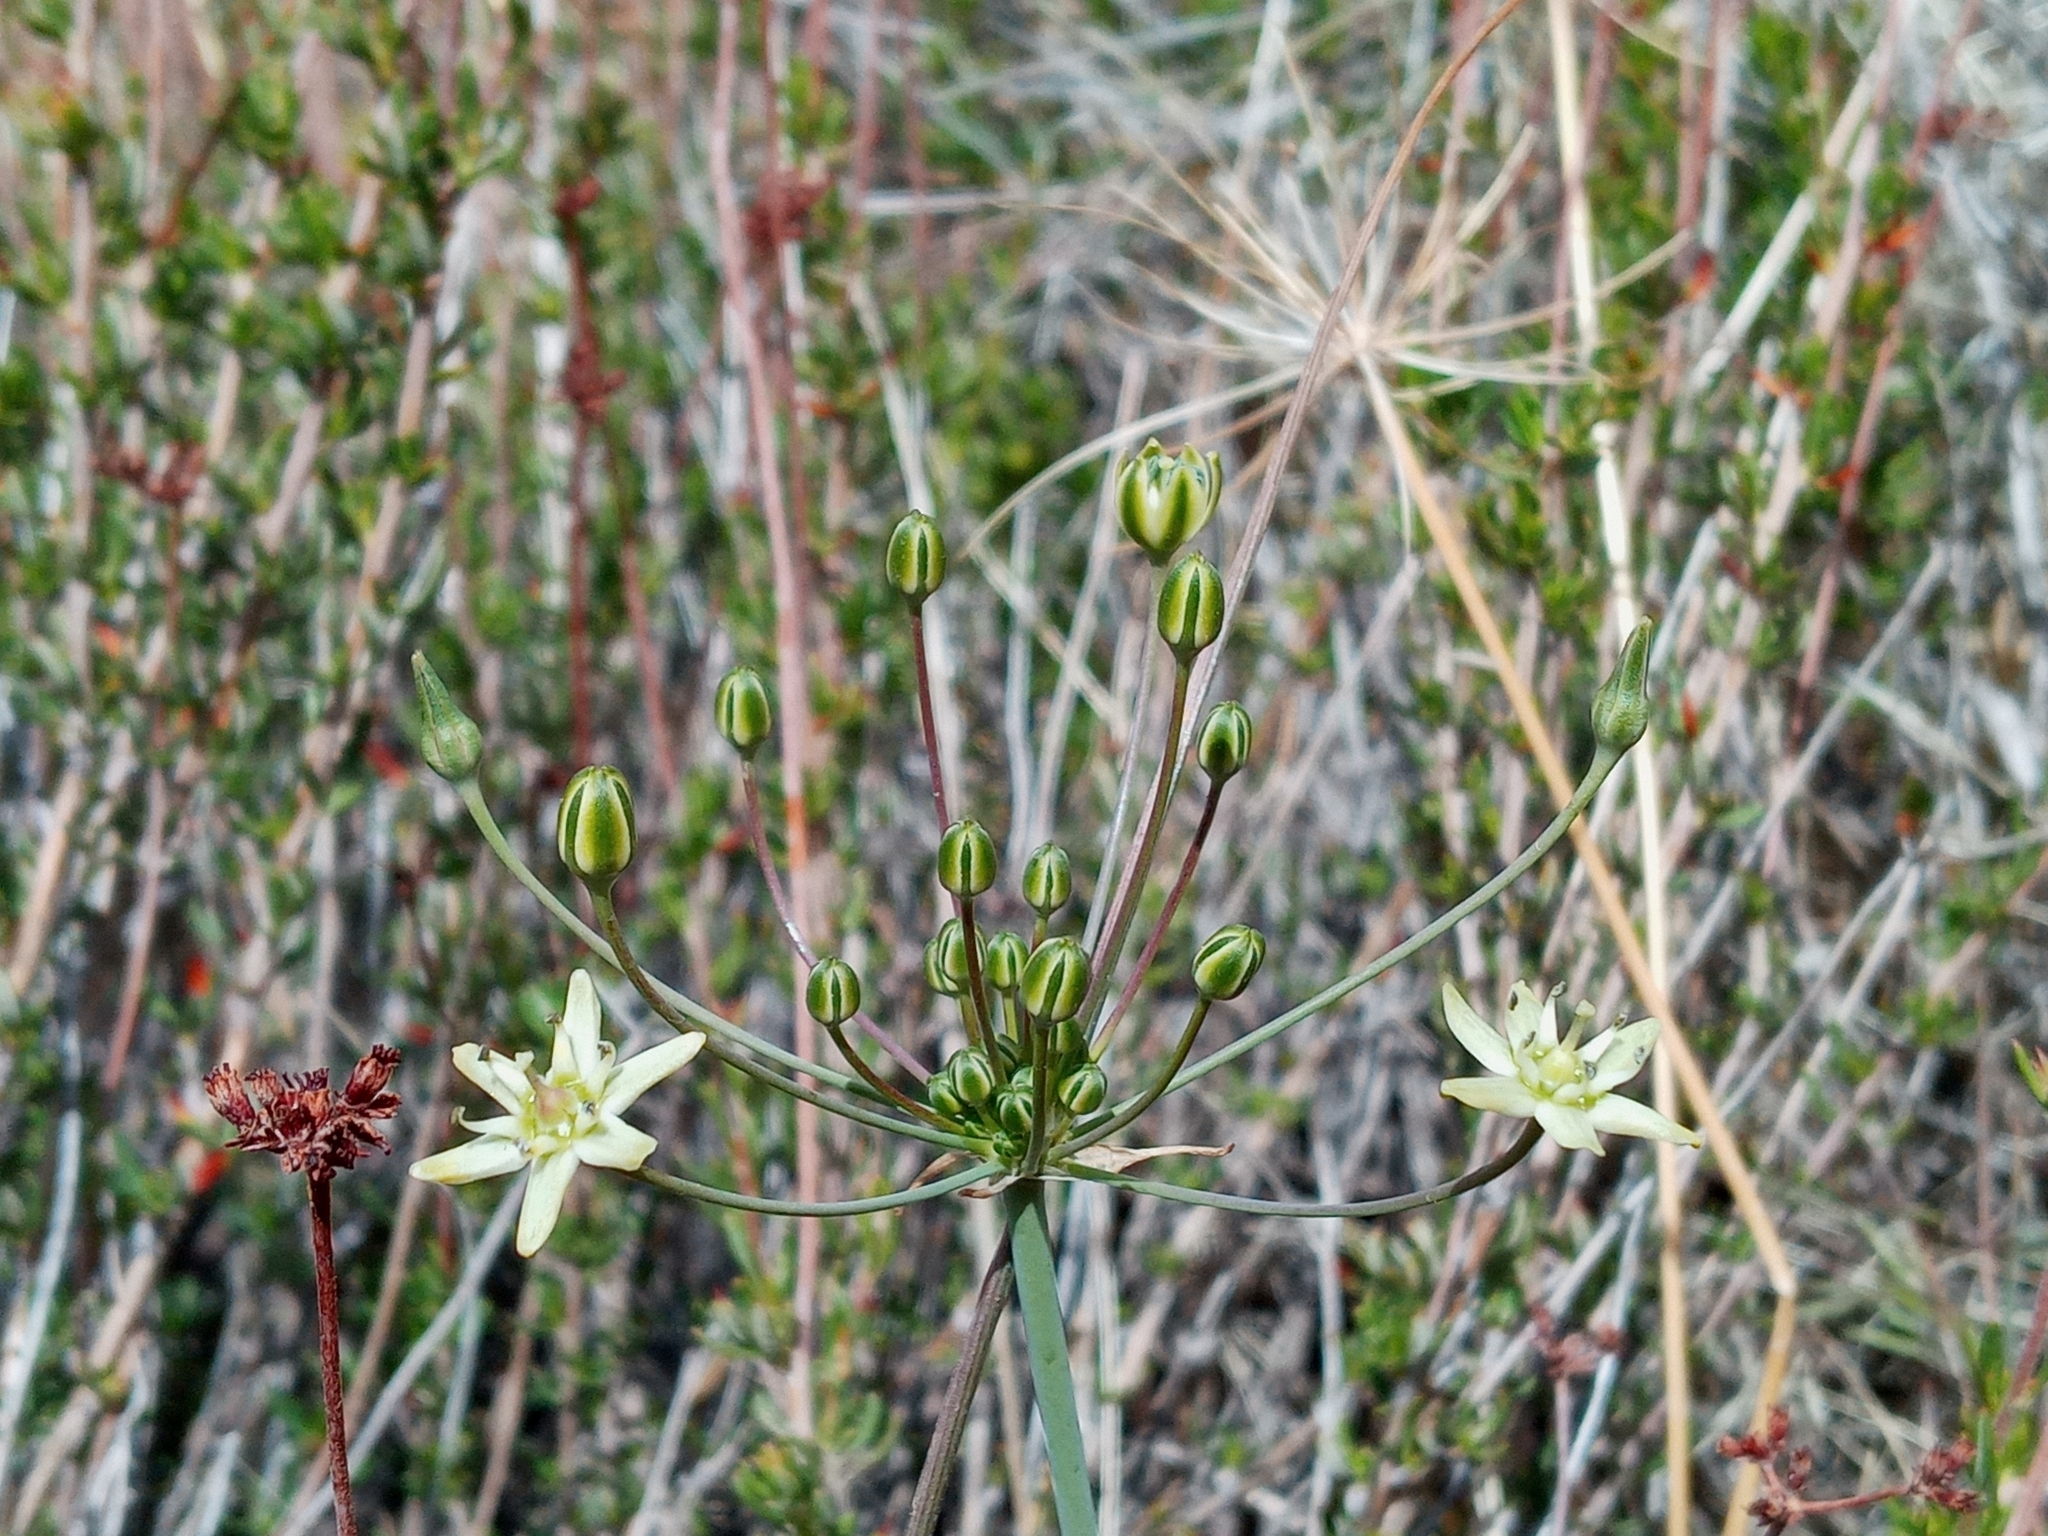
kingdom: Plantae
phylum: Tracheophyta
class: Liliopsida
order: Asparagales
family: Asparagaceae
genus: Muilla
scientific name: Muilla maritima
